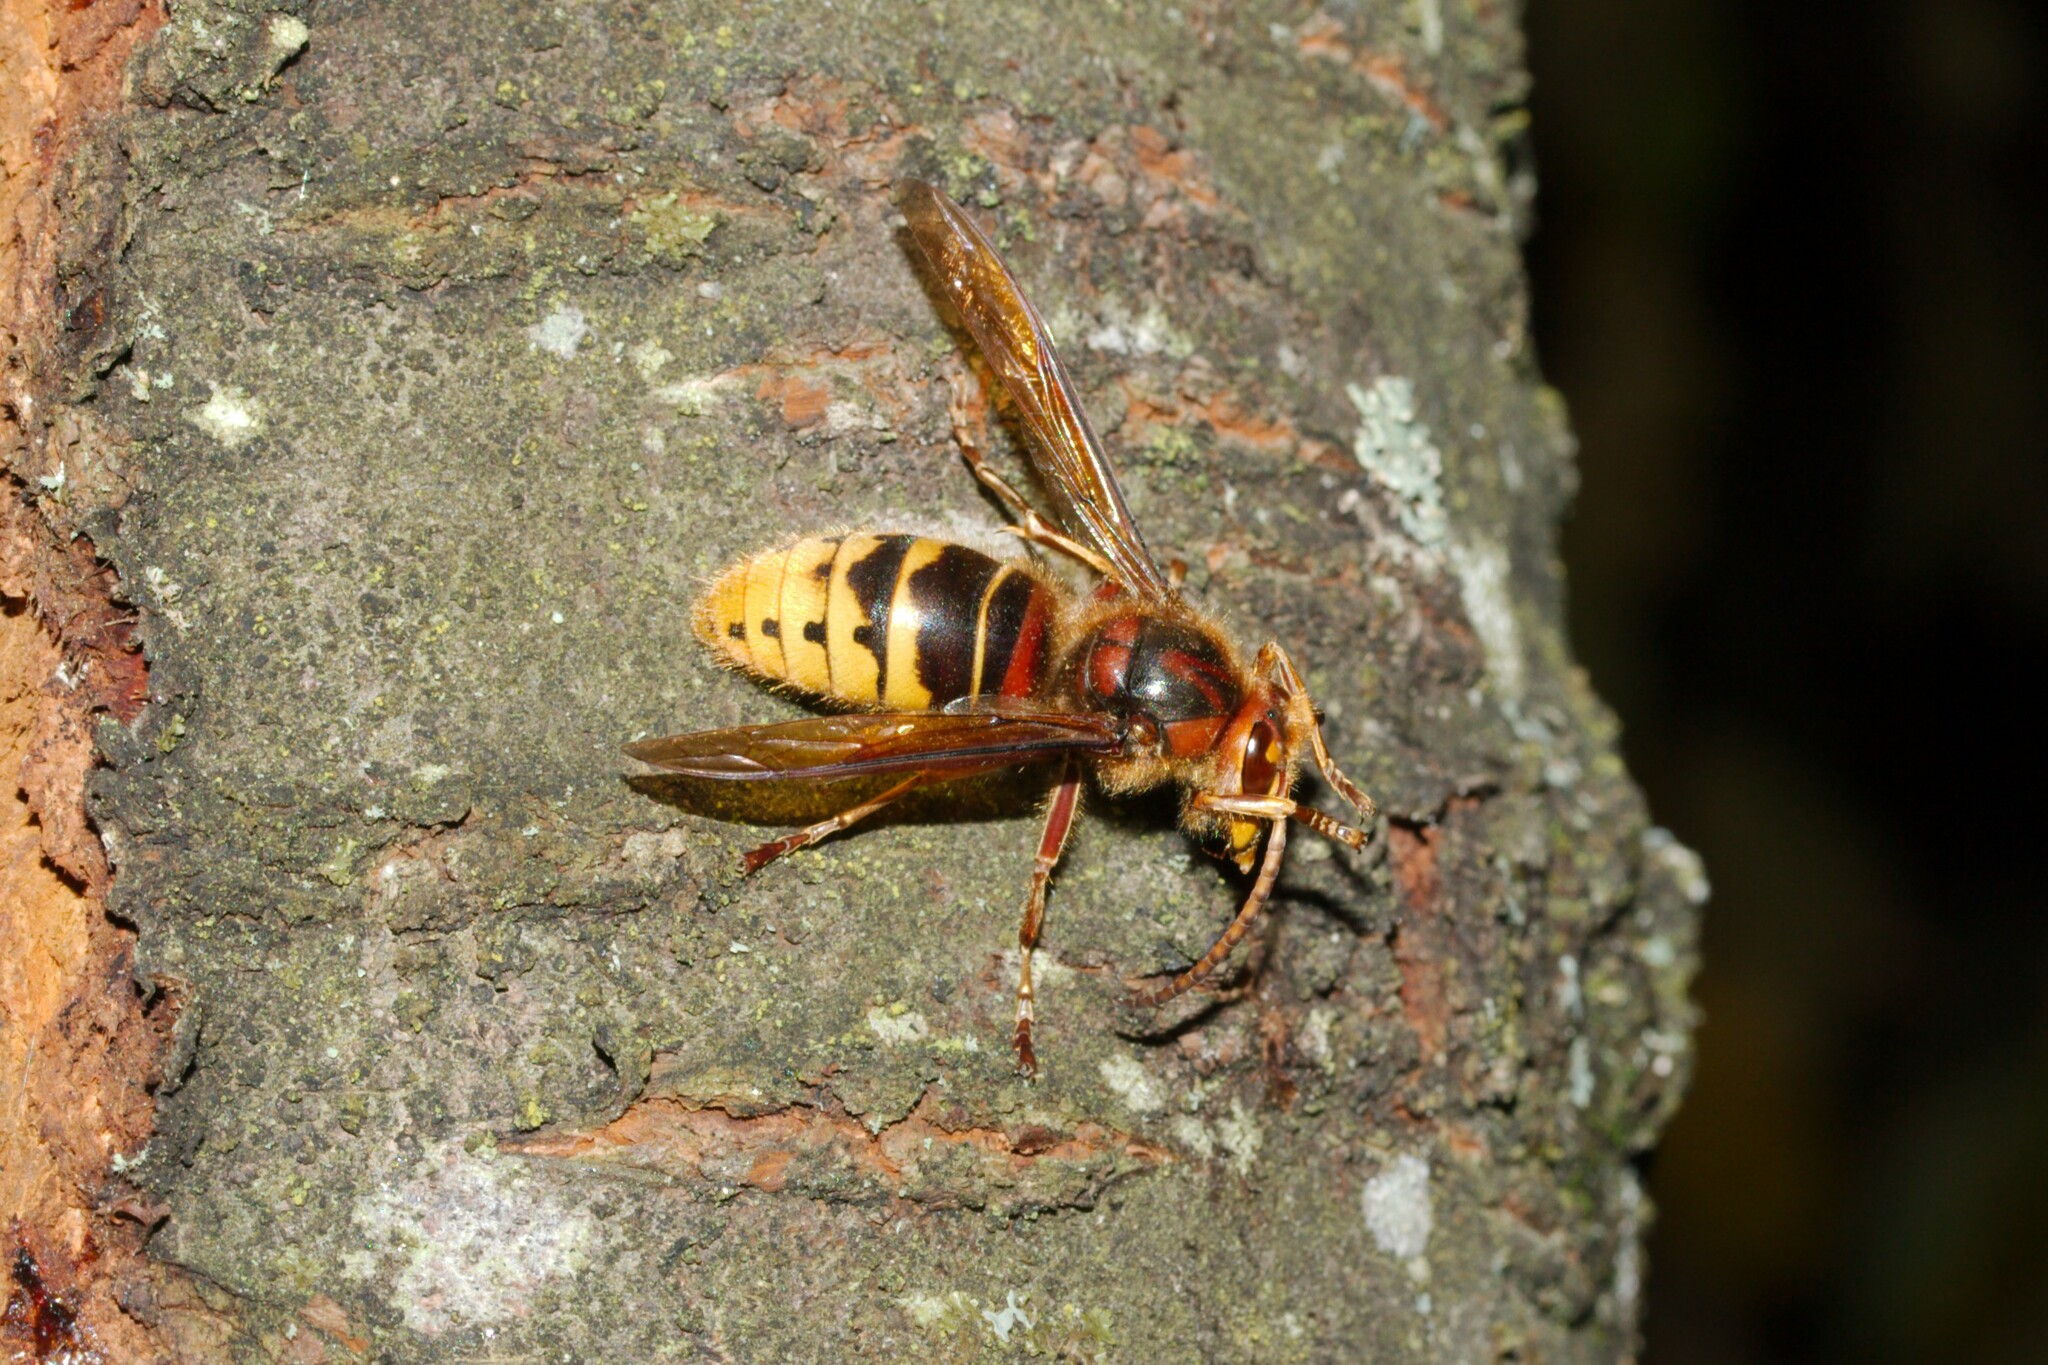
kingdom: Animalia
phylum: Arthropoda
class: Insecta
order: Hymenoptera
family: Vespidae
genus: Vespa
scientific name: Vespa crabro
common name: Hornet
